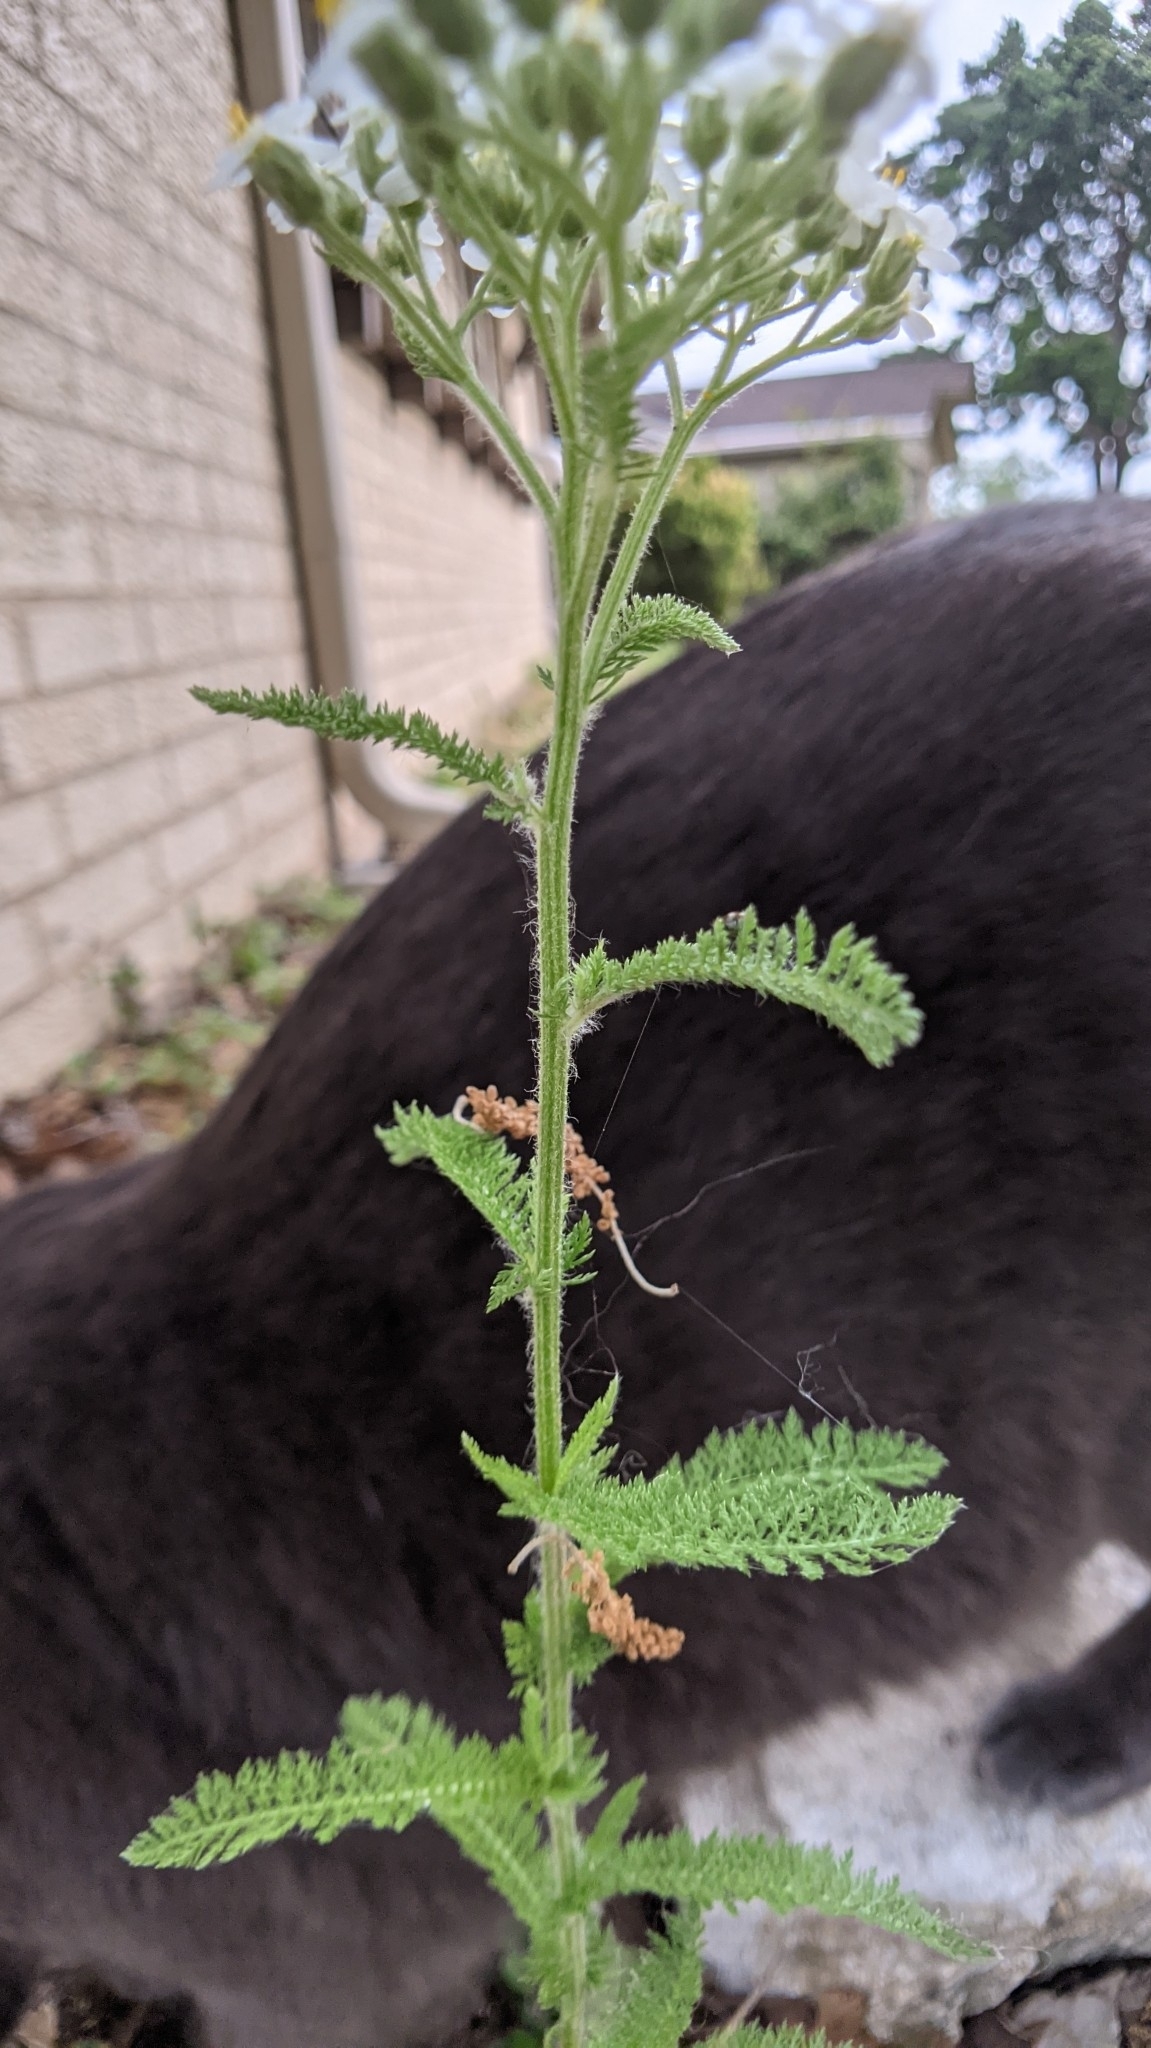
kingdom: Plantae
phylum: Tracheophyta
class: Magnoliopsida
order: Asterales
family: Asteraceae
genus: Achillea
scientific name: Achillea millefolium
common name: Yarrow
